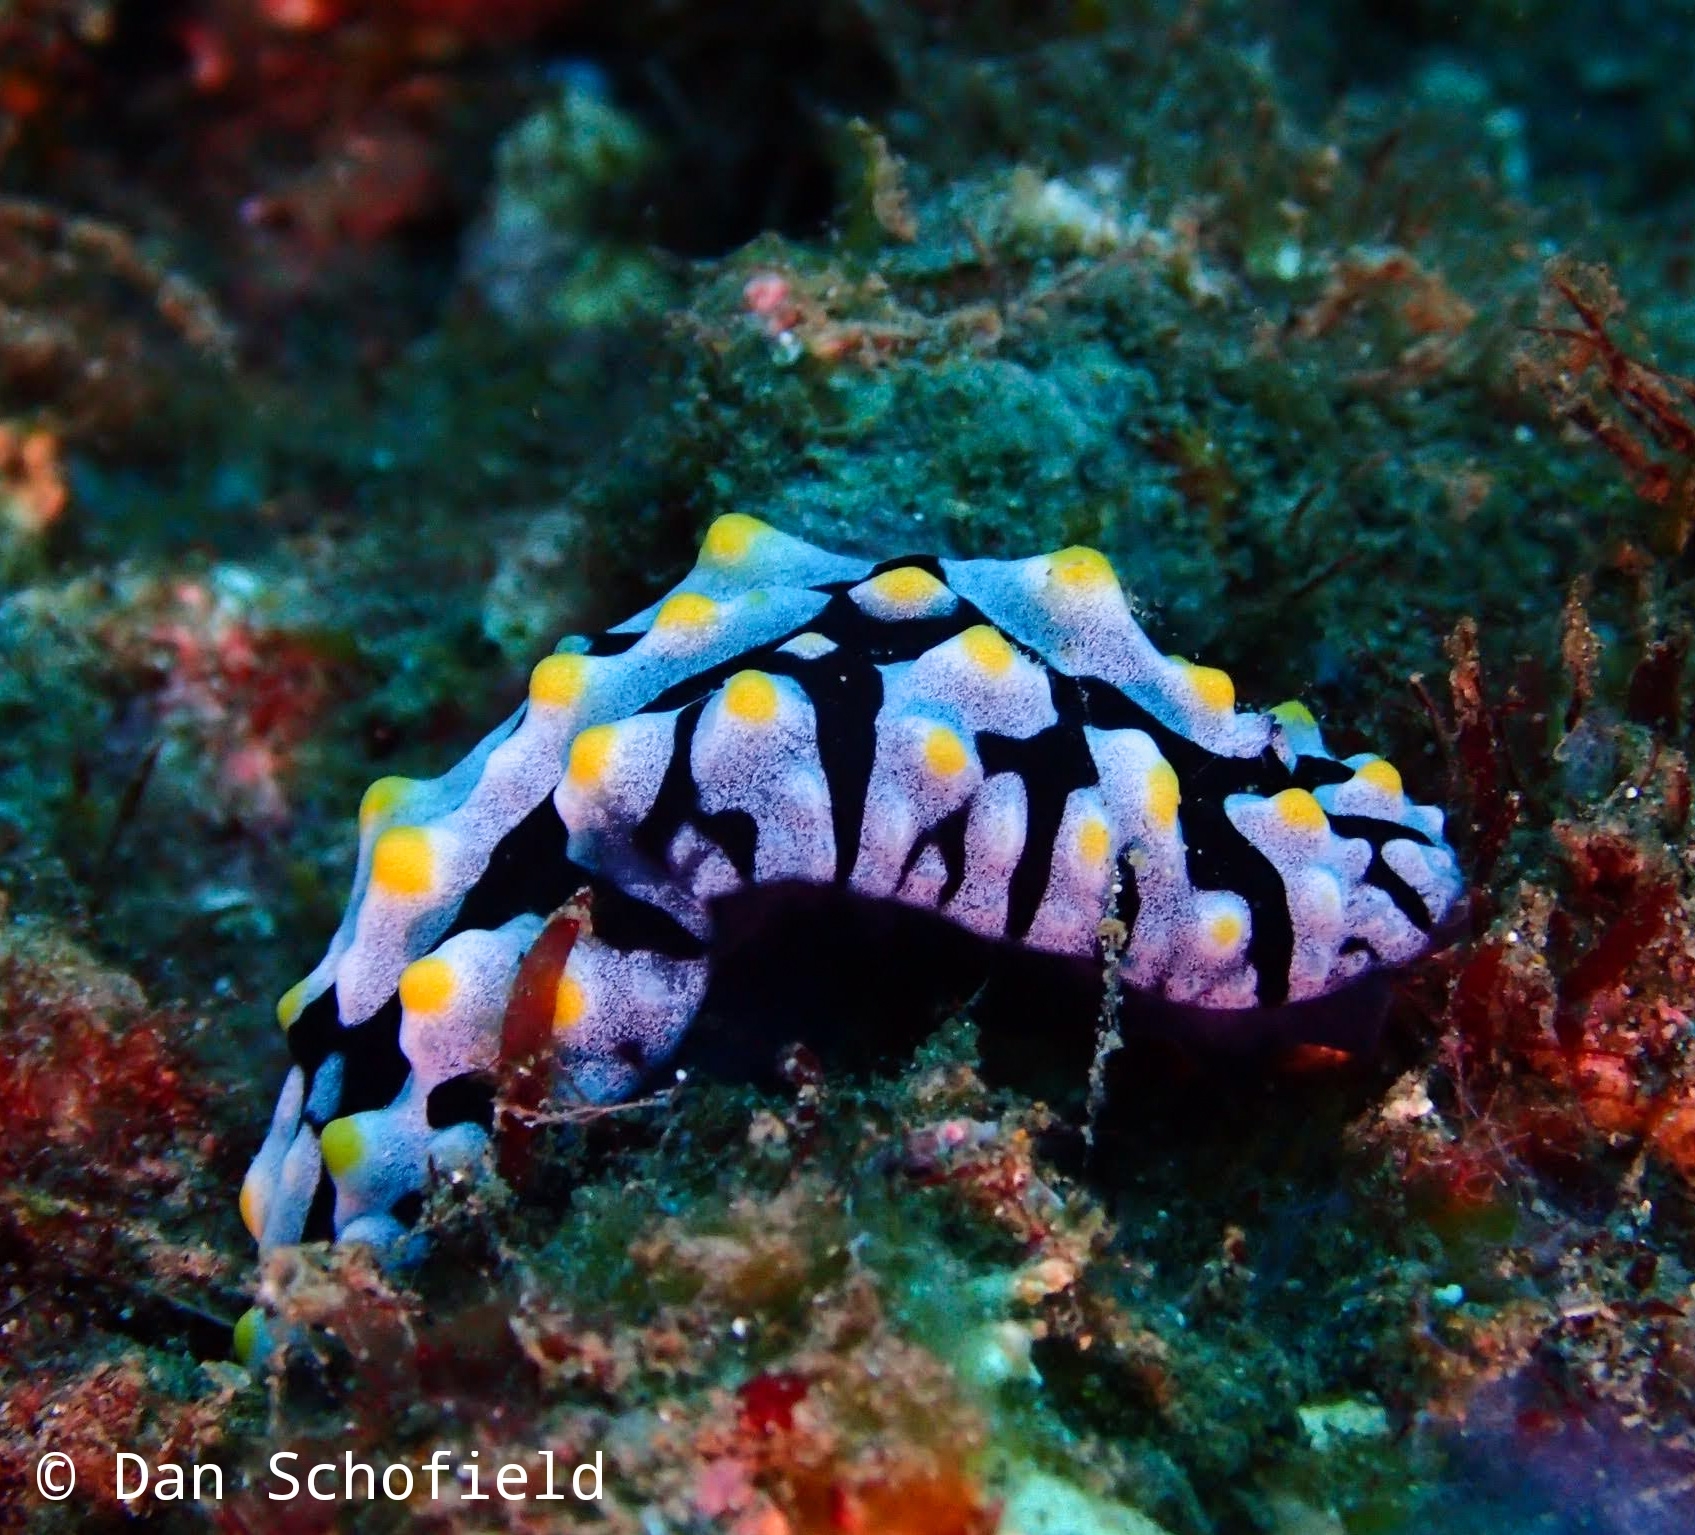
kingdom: Animalia
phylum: Mollusca
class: Gastropoda
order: Nudibranchia
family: Phyllidiidae
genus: Phyllidia
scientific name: Phyllidia varicosa
